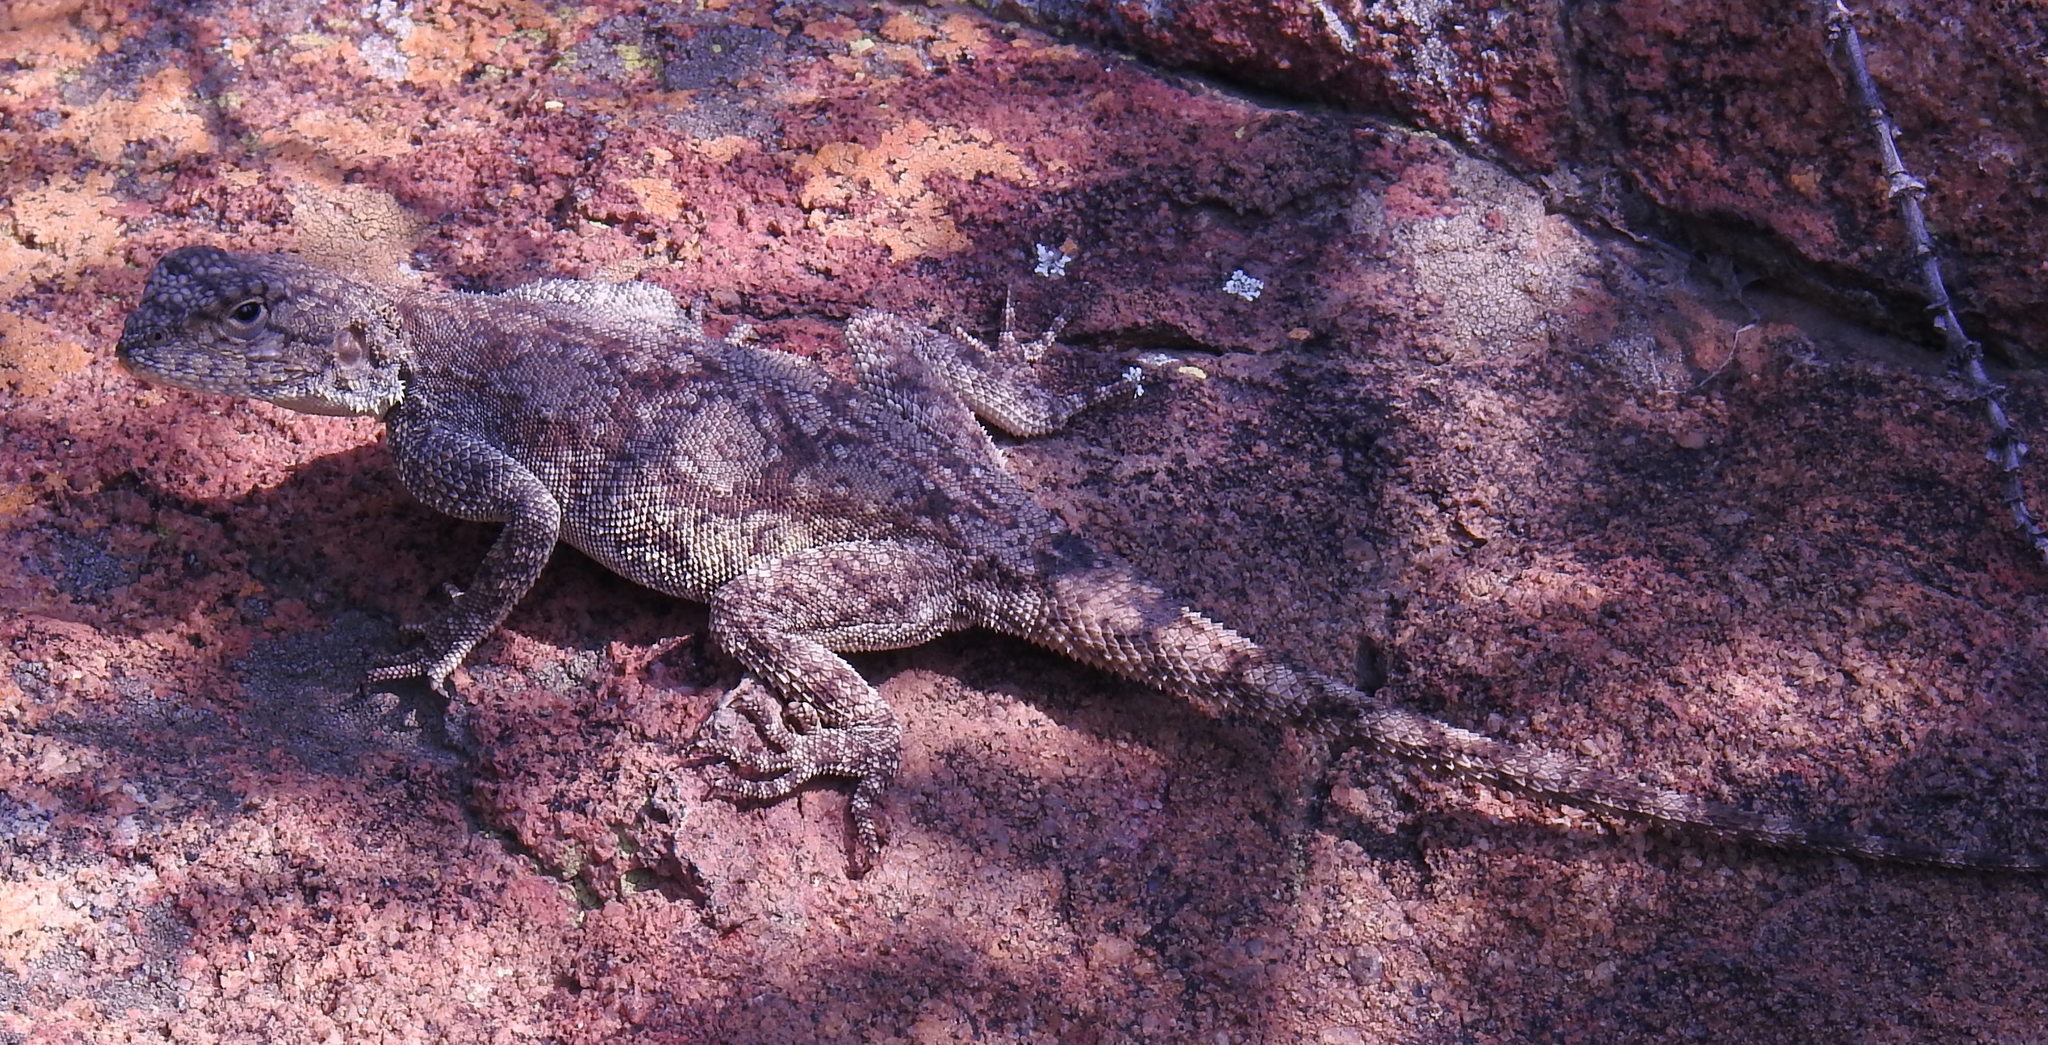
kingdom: Animalia
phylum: Chordata
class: Squamata
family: Agamidae
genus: Agama
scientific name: Agama atra
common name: Southern african rock agama
